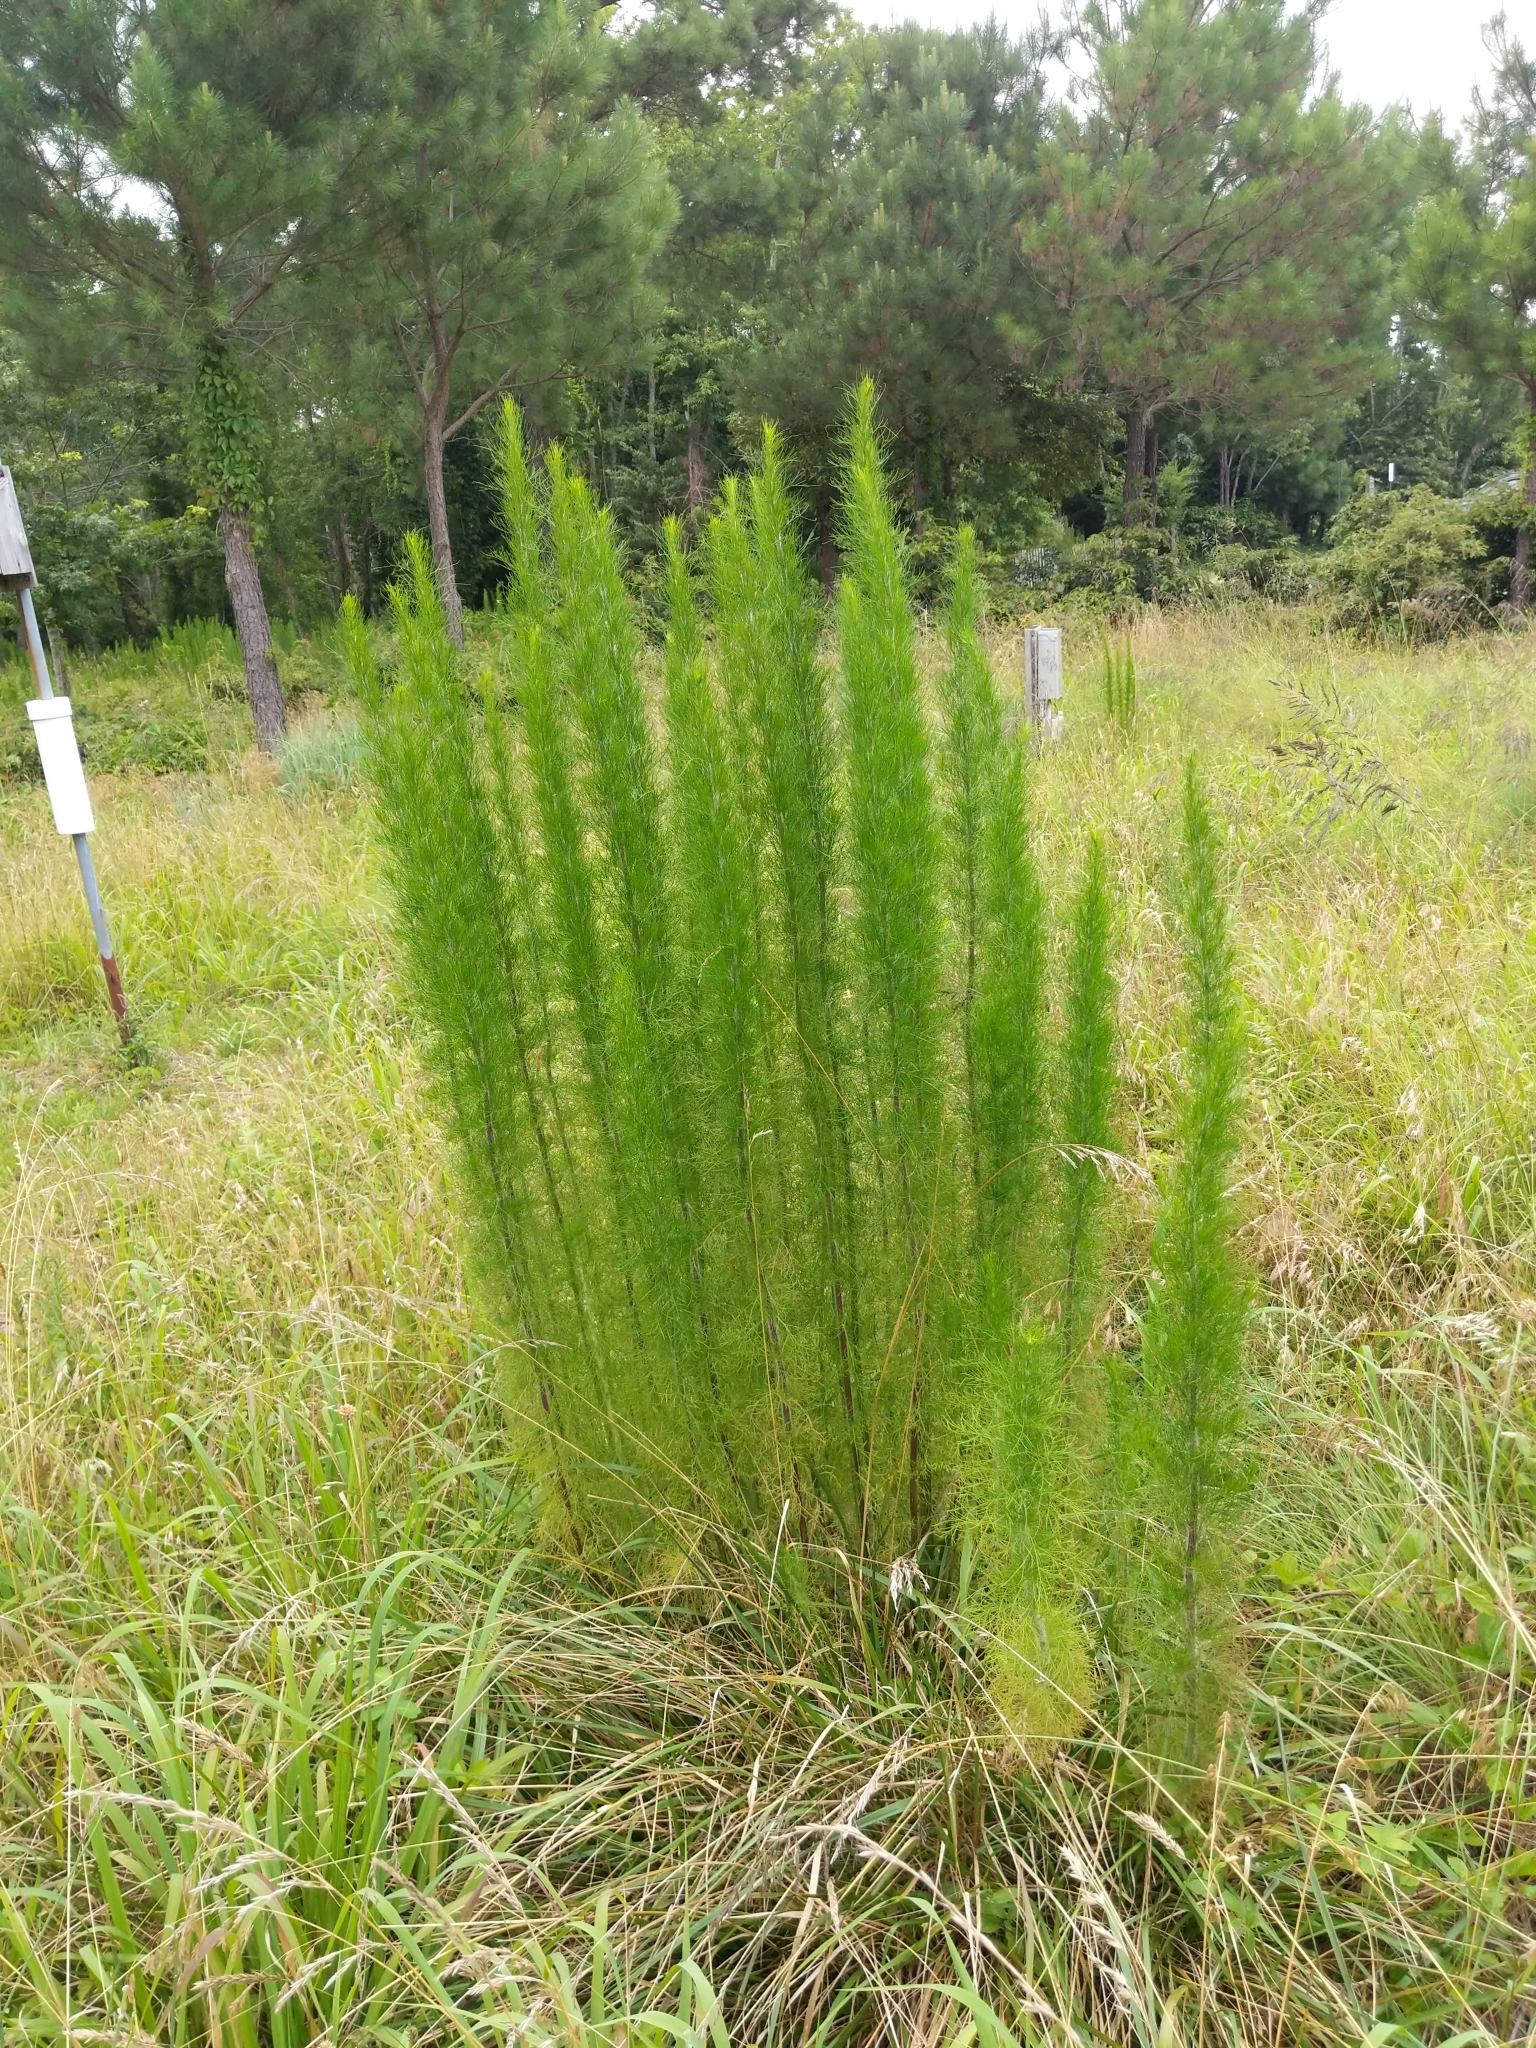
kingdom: Plantae
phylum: Tracheophyta
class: Magnoliopsida
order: Asterales
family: Asteraceae
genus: Eupatorium
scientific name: Eupatorium capillifolium
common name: Dog-fennel
